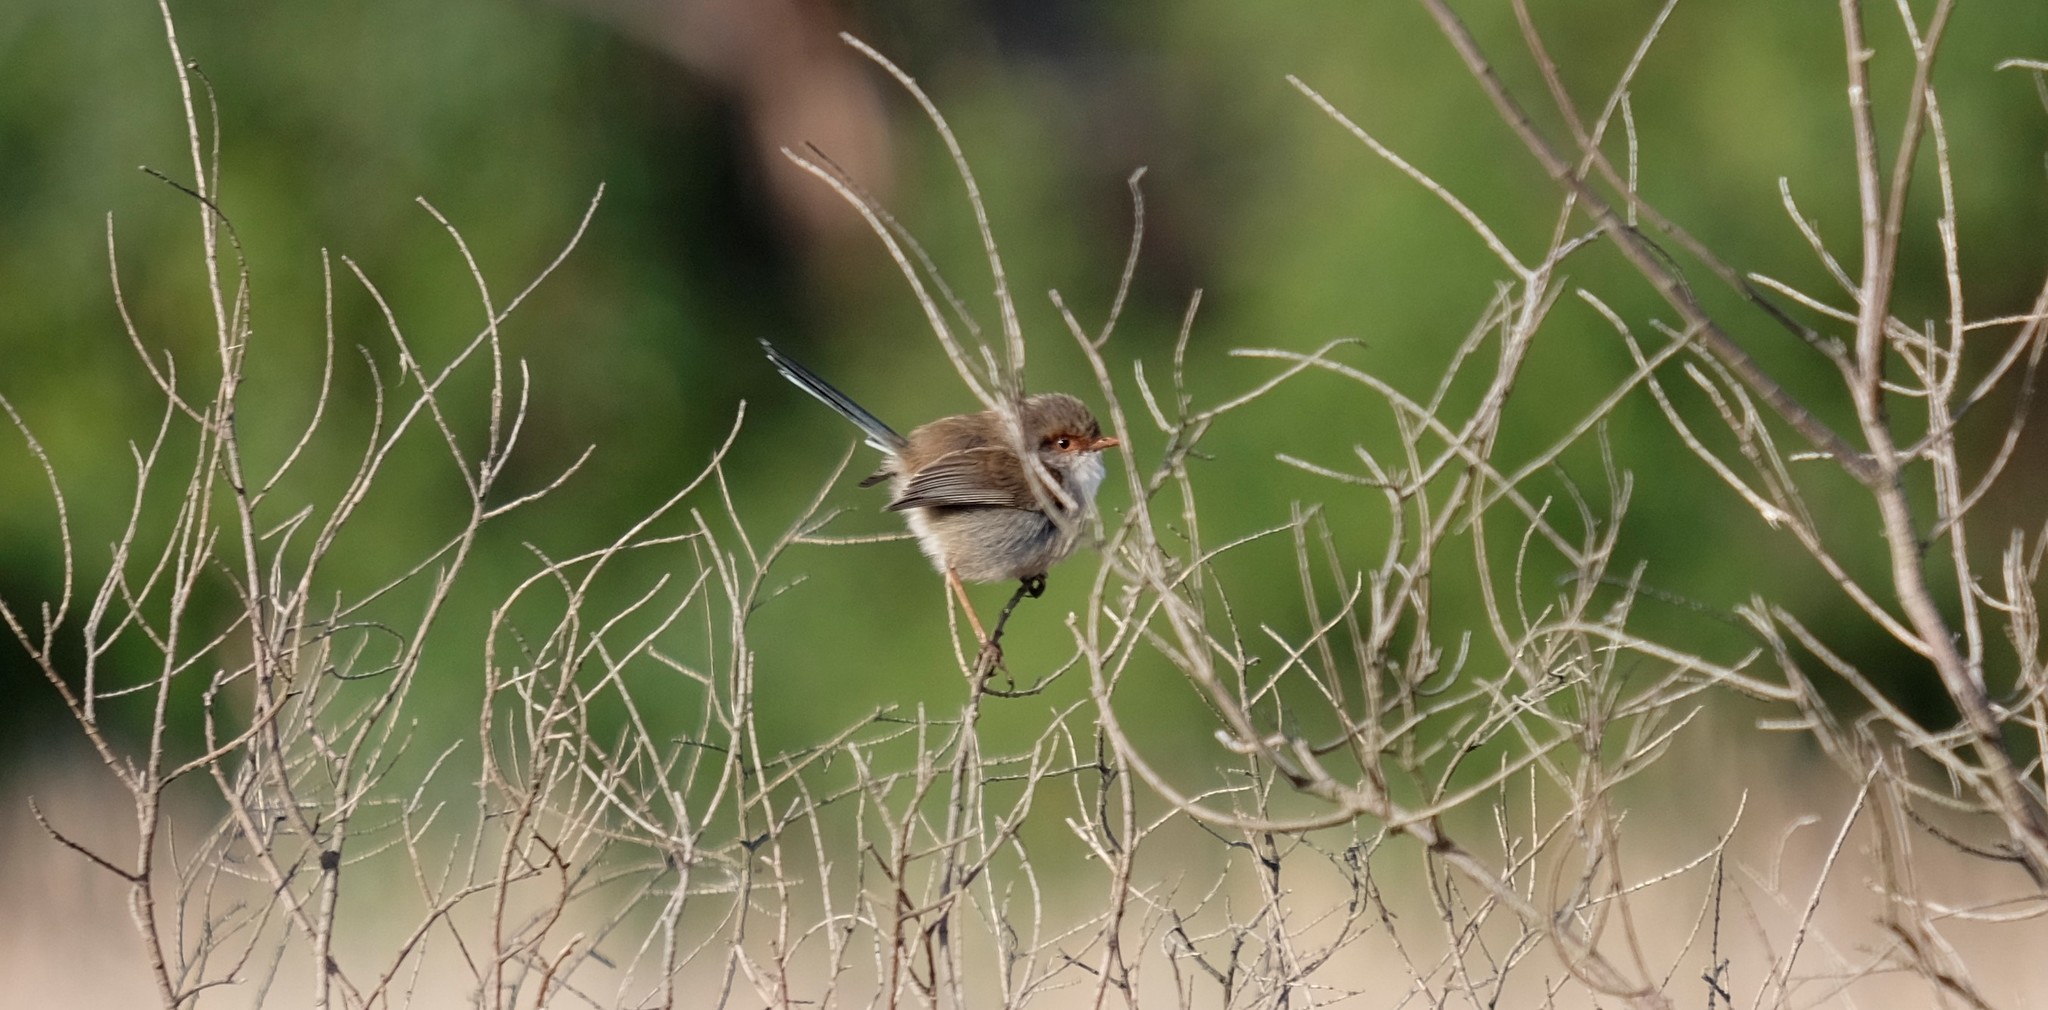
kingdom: Animalia
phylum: Chordata
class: Aves
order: Passeriformes
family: Maluridae
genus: Malurus
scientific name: Malurus cyaneus
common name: Superb fairywren
